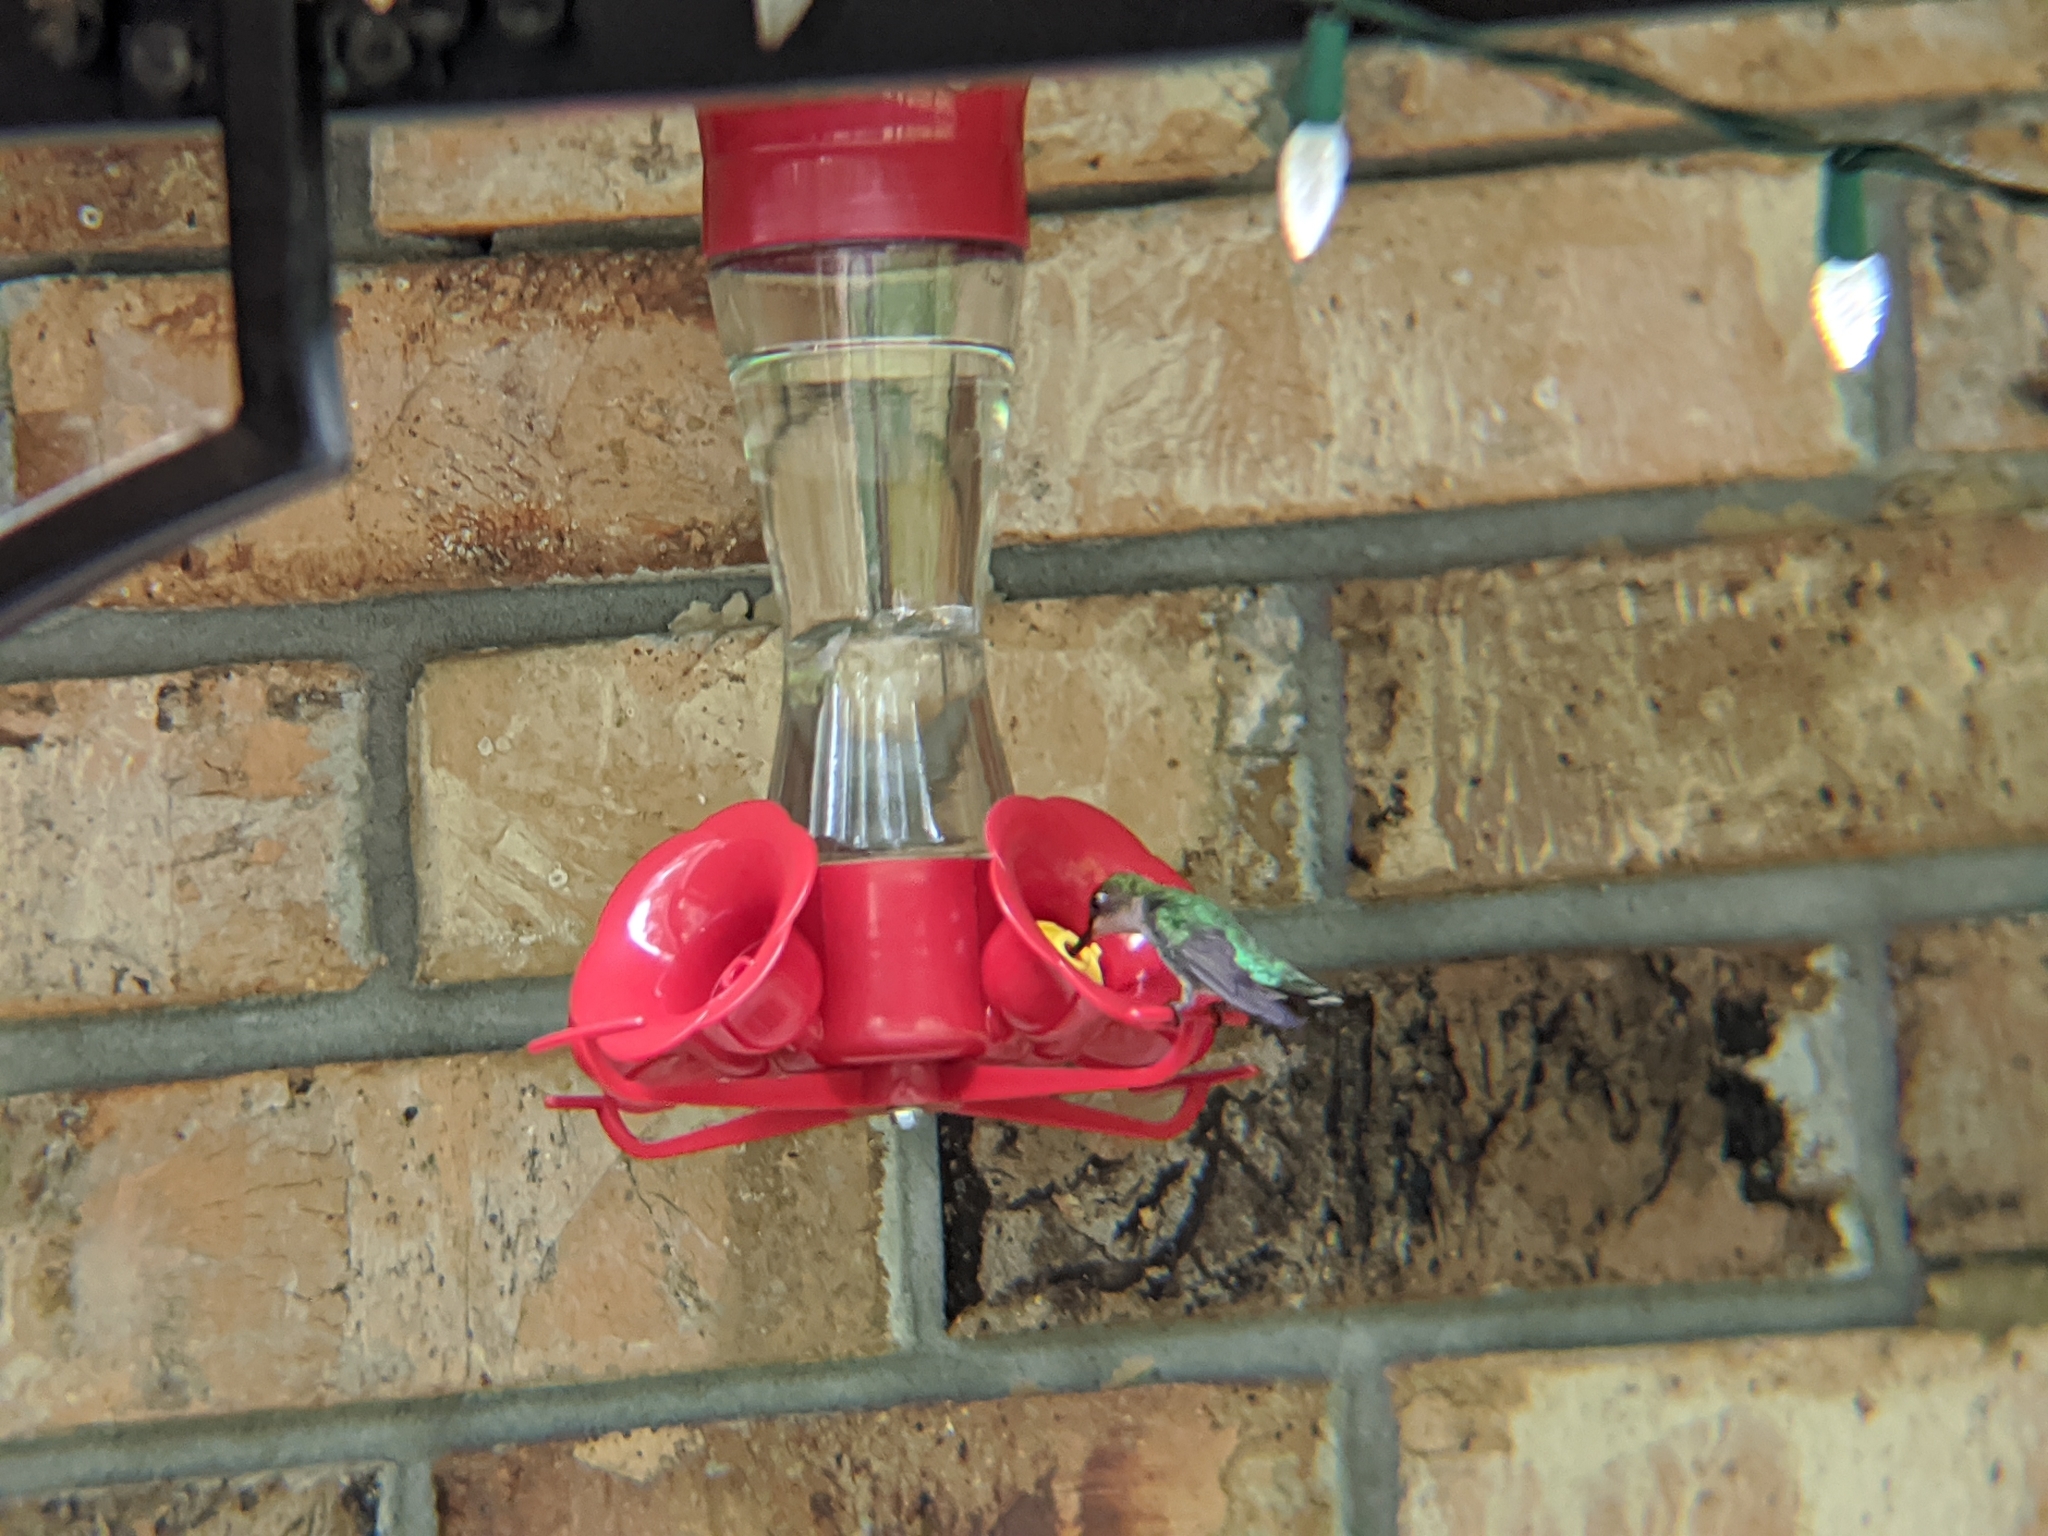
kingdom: Animalia
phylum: Chordata
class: Aves
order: Apodiformes
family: Trochilidae
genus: Archilochus
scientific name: Archilochus colubris
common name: Ruby-throated hummingbird
